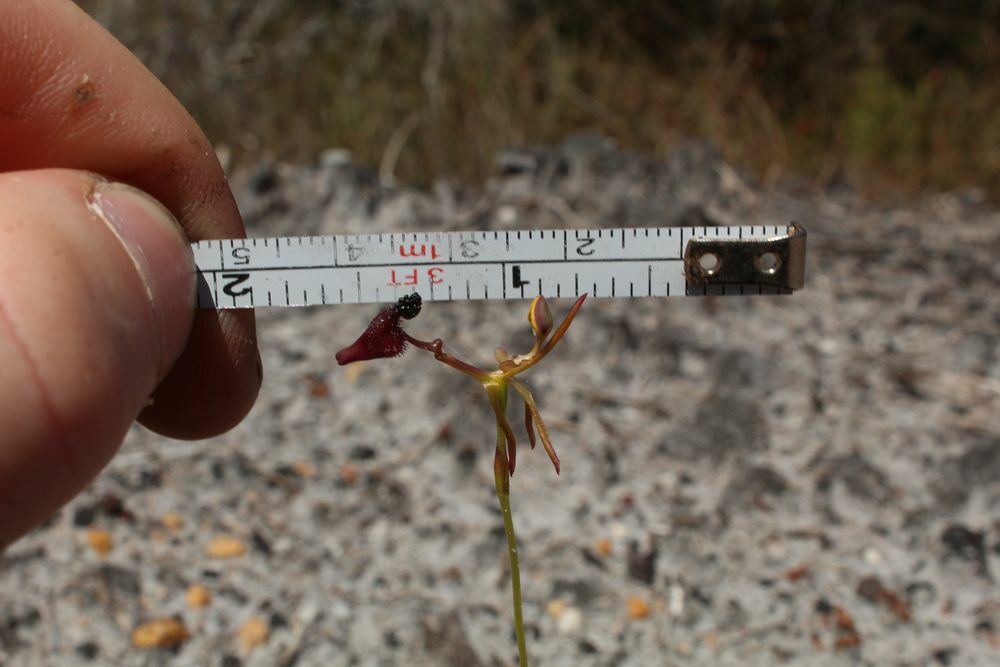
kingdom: Plantae
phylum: Tracheophyta
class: Liliopsida
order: Asparagales
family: Orchidaceae
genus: Drakaea
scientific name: Drakaea glyptodon
